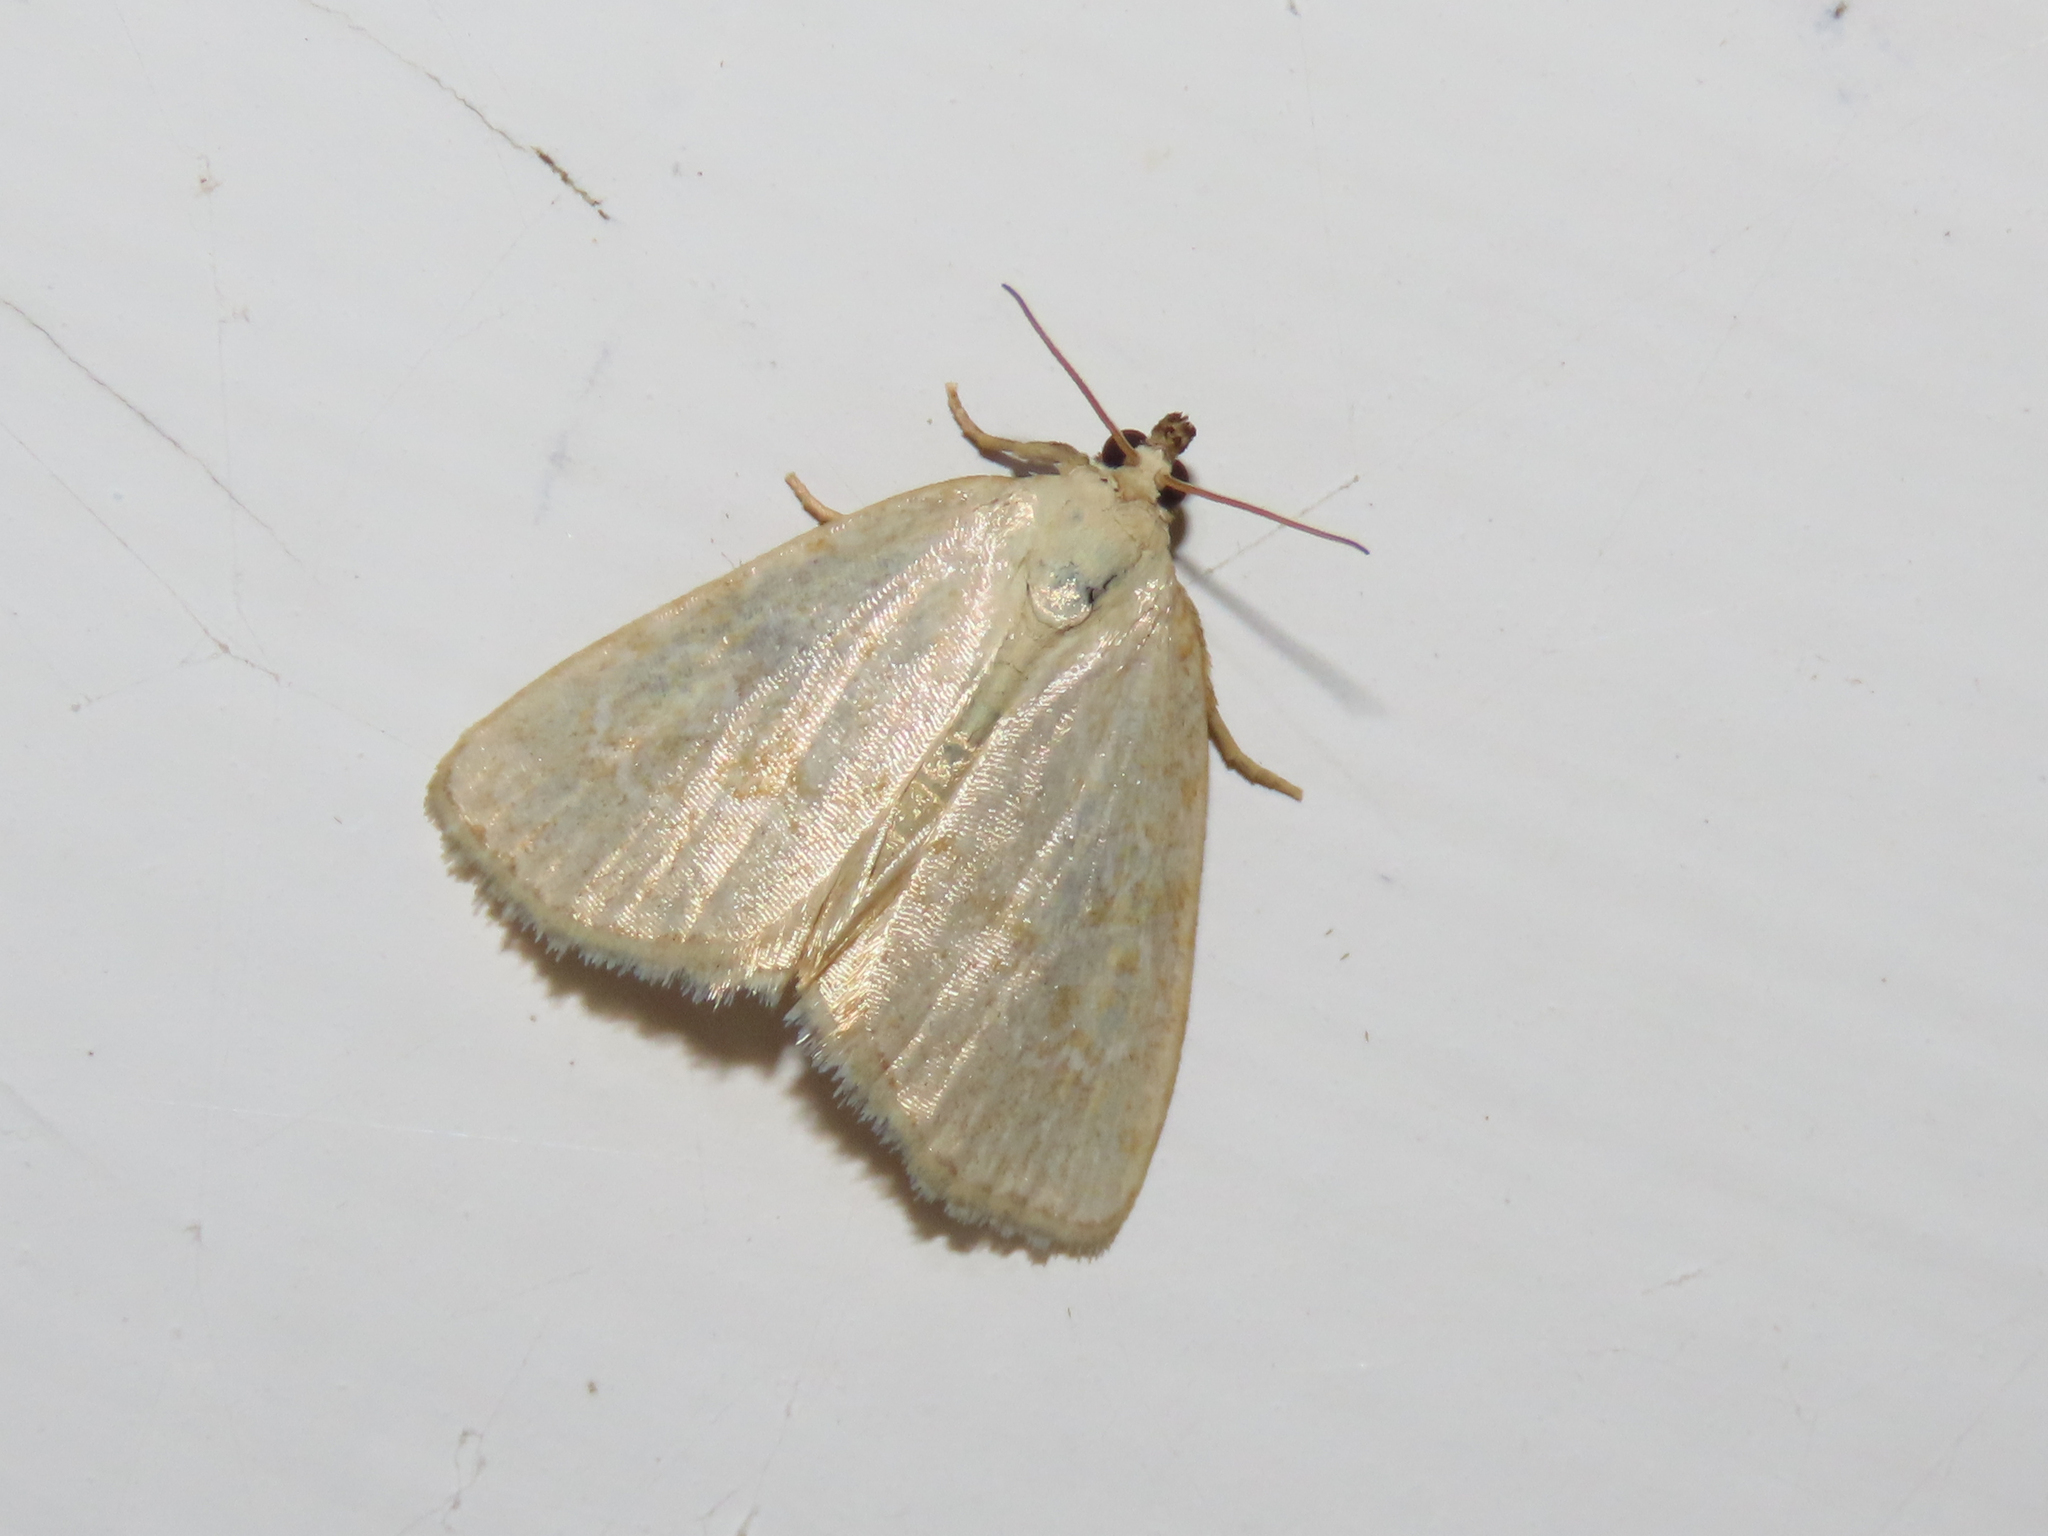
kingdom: Animalia
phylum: Arthropoda
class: Insecta
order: Lepidoptera
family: Noctuidae
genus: Protodeltote
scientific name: Protodeltote albidula
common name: Pale glyph
